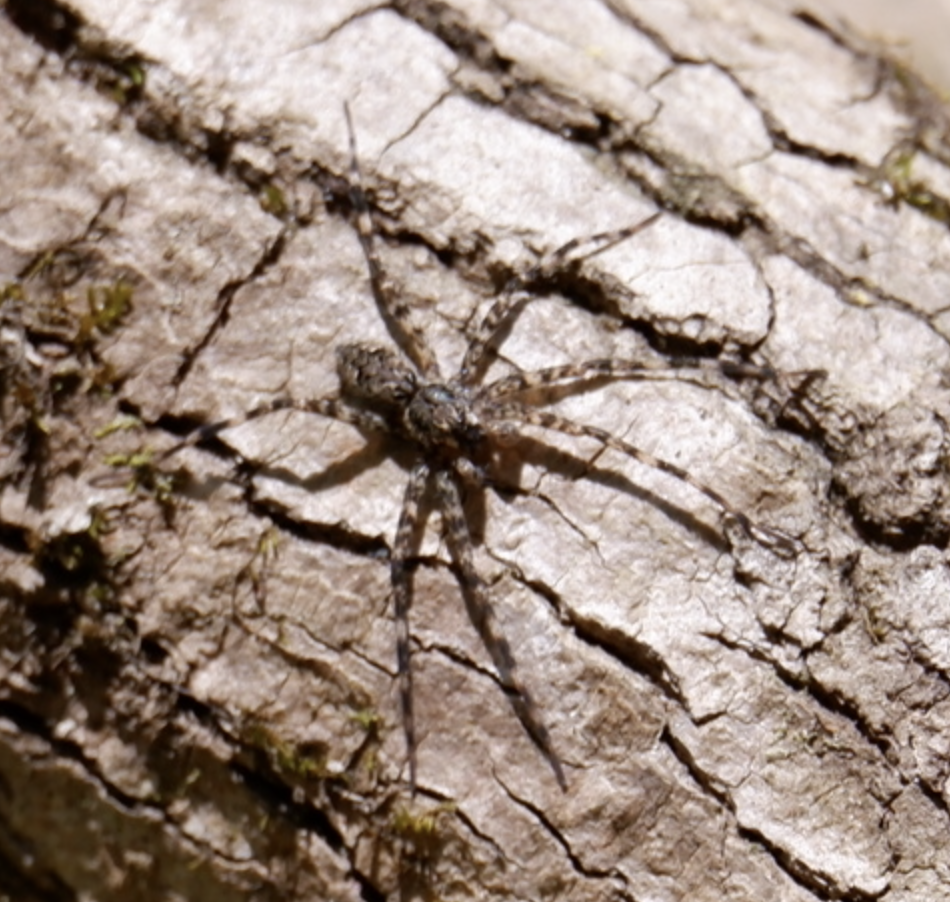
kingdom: Animalia
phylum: Arthropoda
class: Arachnida
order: Araneae
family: Pisauridae
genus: Dolomedes
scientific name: Dolomedes tenebrosus
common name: Dark fishing spider
